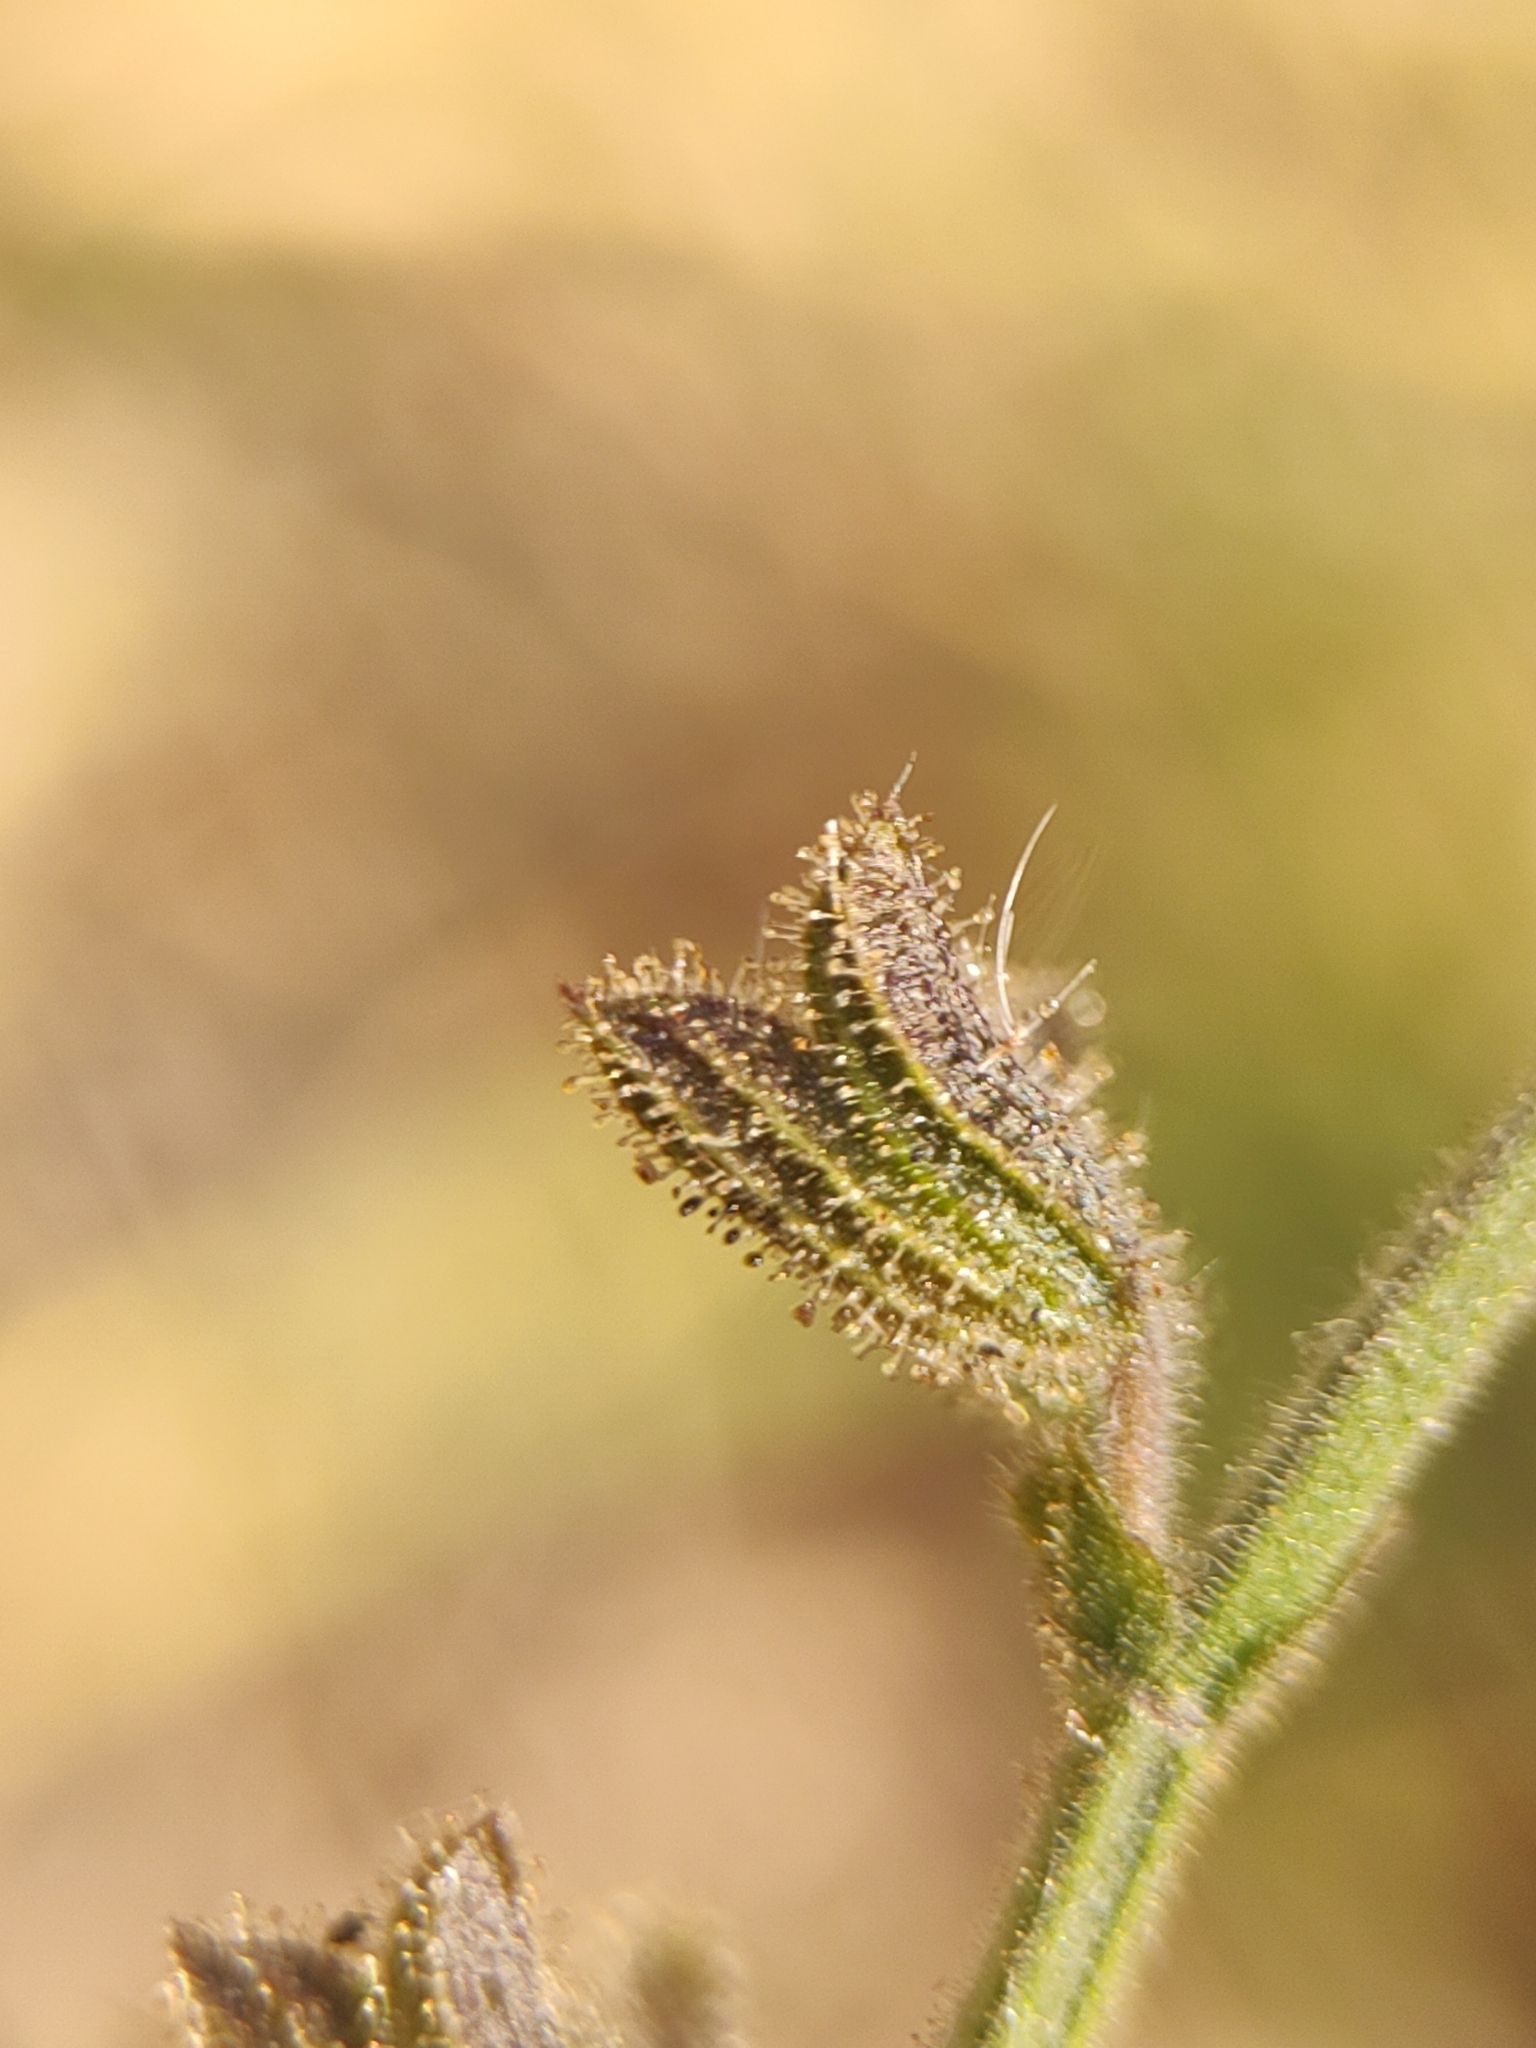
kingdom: Plantae
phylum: Tracheophyta
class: Magnoliopsida
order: Lamiales
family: Lamiaceae
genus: Salvia
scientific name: Salvia misella
